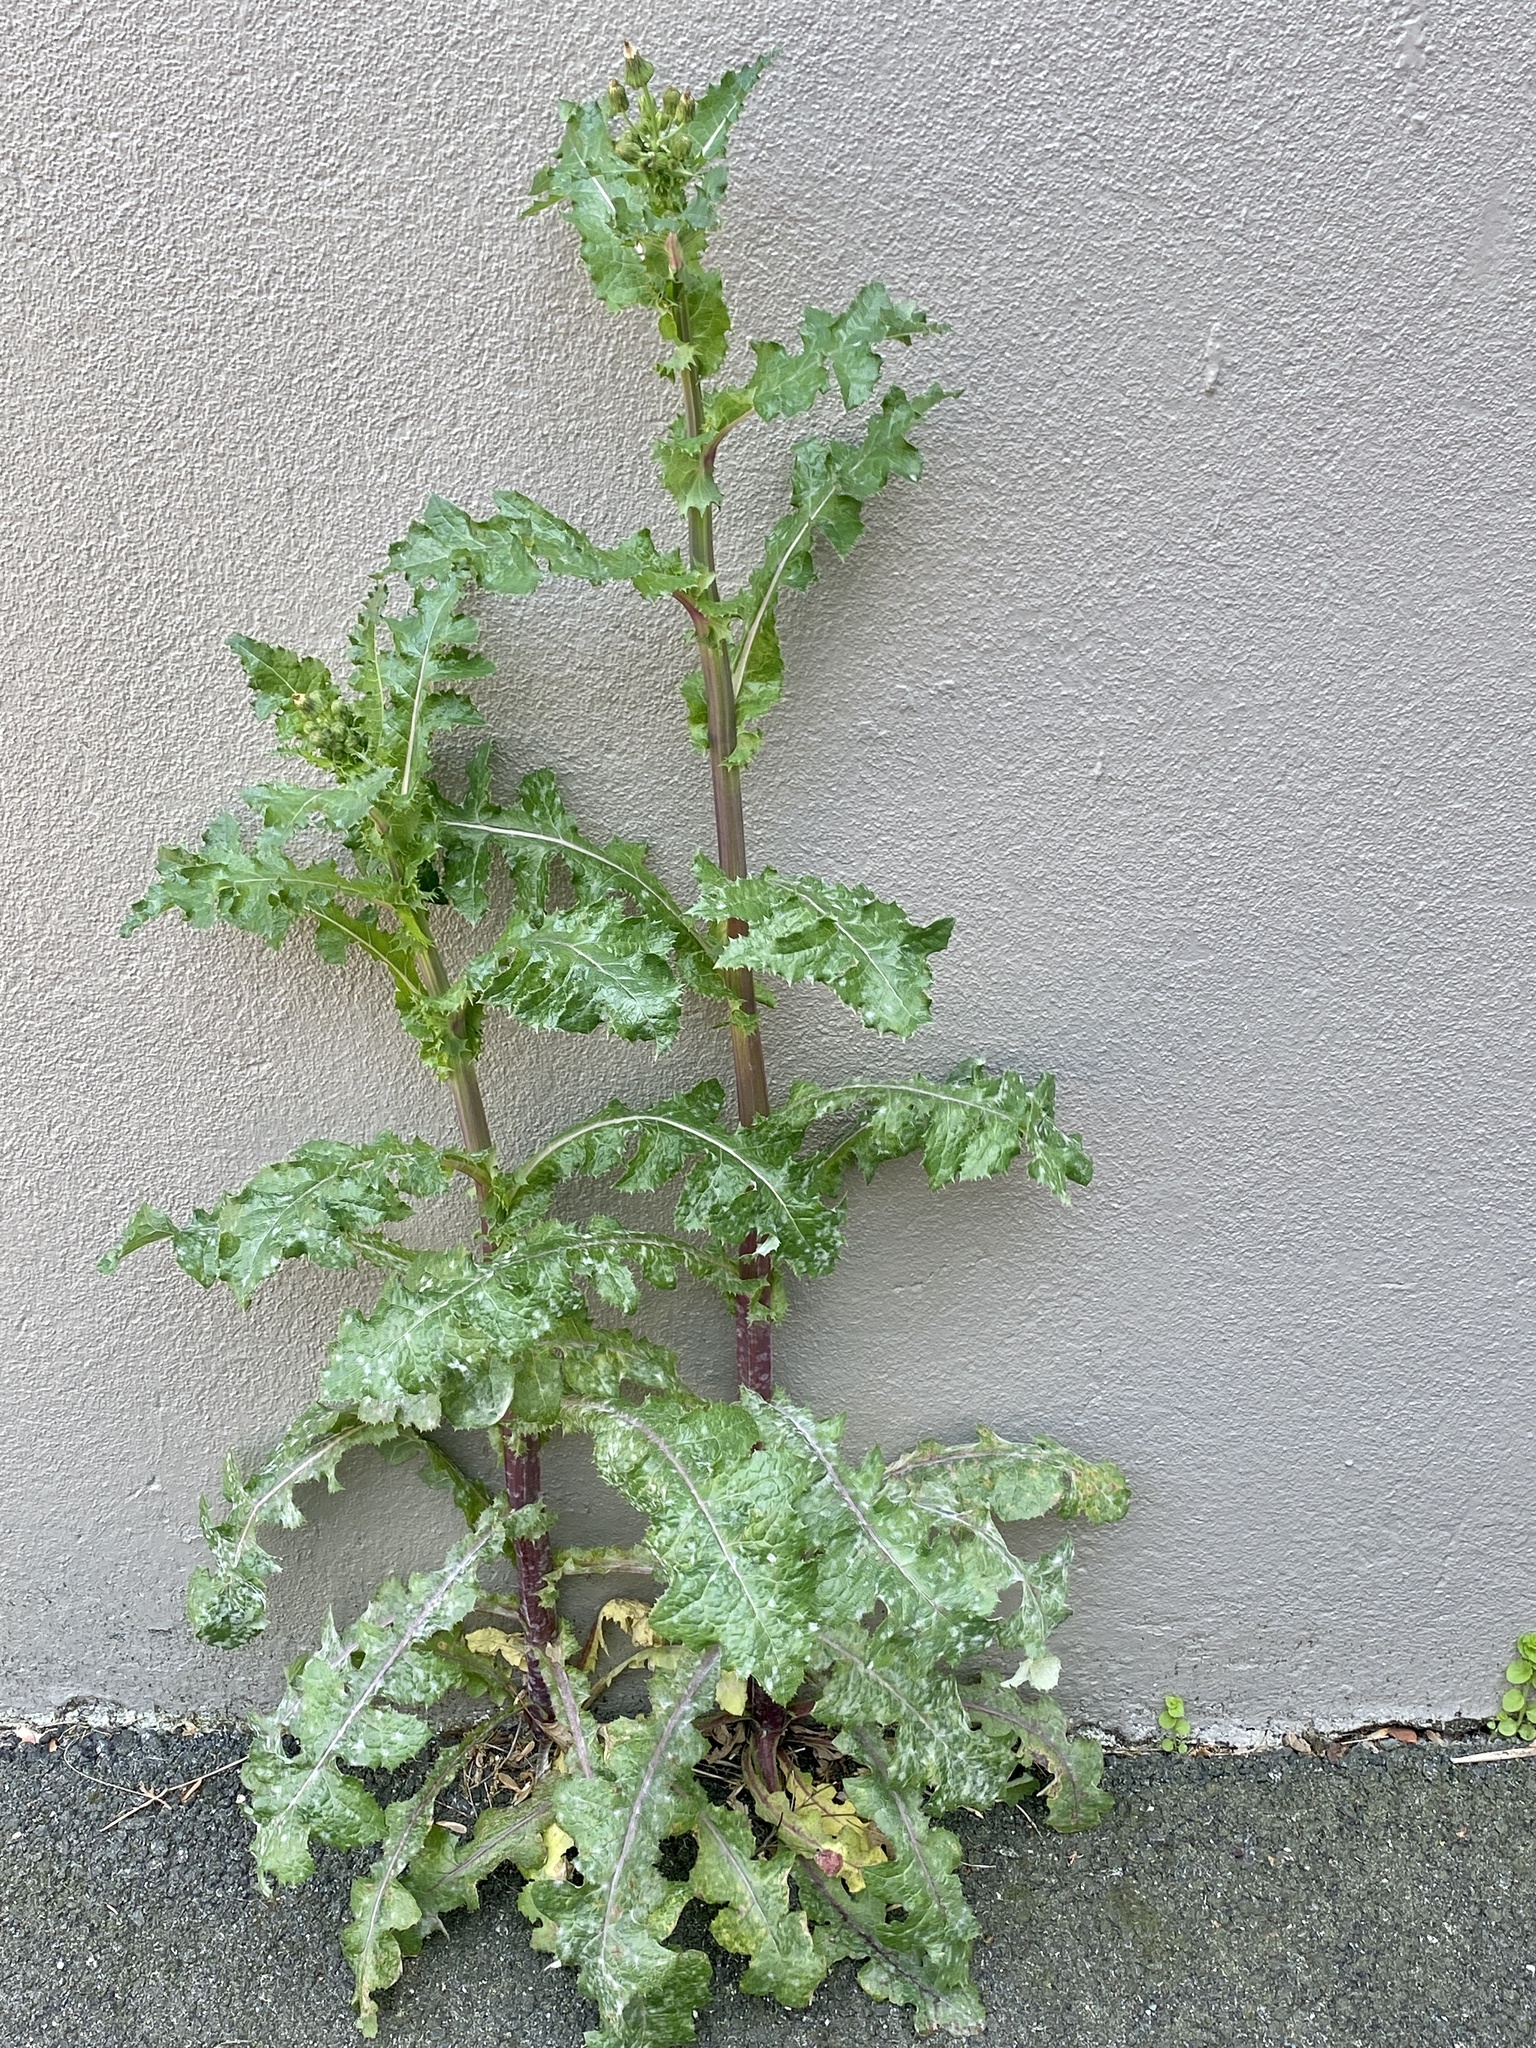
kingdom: Plantae
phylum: Tracheophyta
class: Magnoliopsida
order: Asterales
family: Asteraceae
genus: Sonchus
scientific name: Sonchus asper
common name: Prickly sow-thistle
